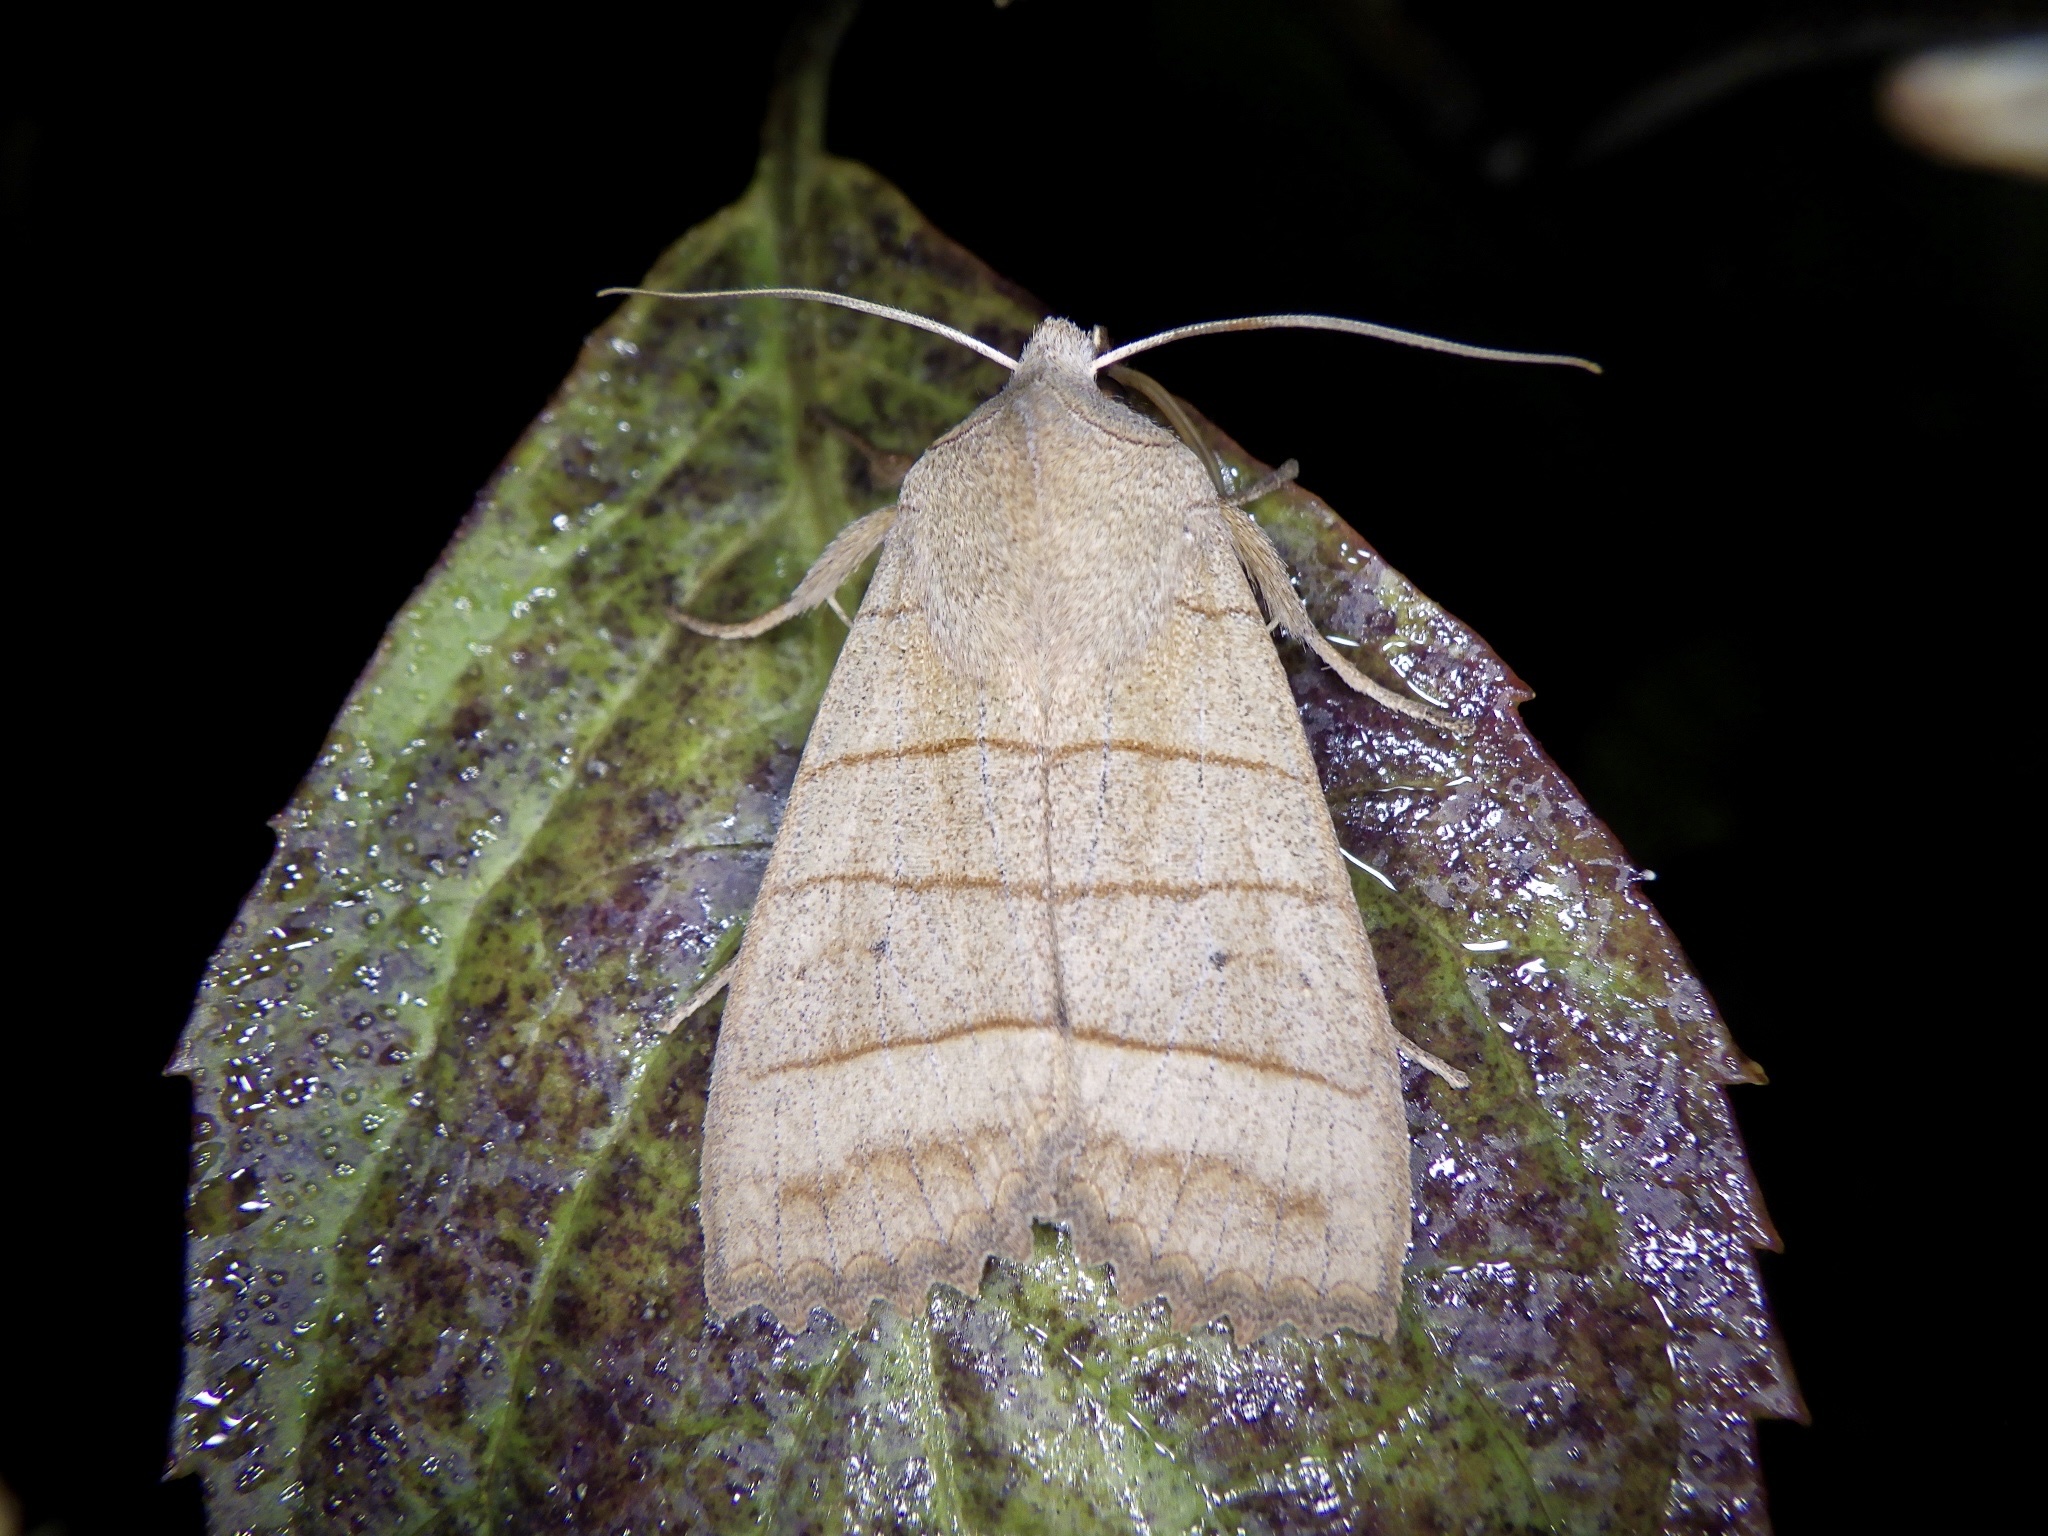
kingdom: Animalia
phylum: Arthropoda
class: Insecta
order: Lepidoptera
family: Noctuidae
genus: Eupsilia
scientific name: Eupsilia quadrilinea
